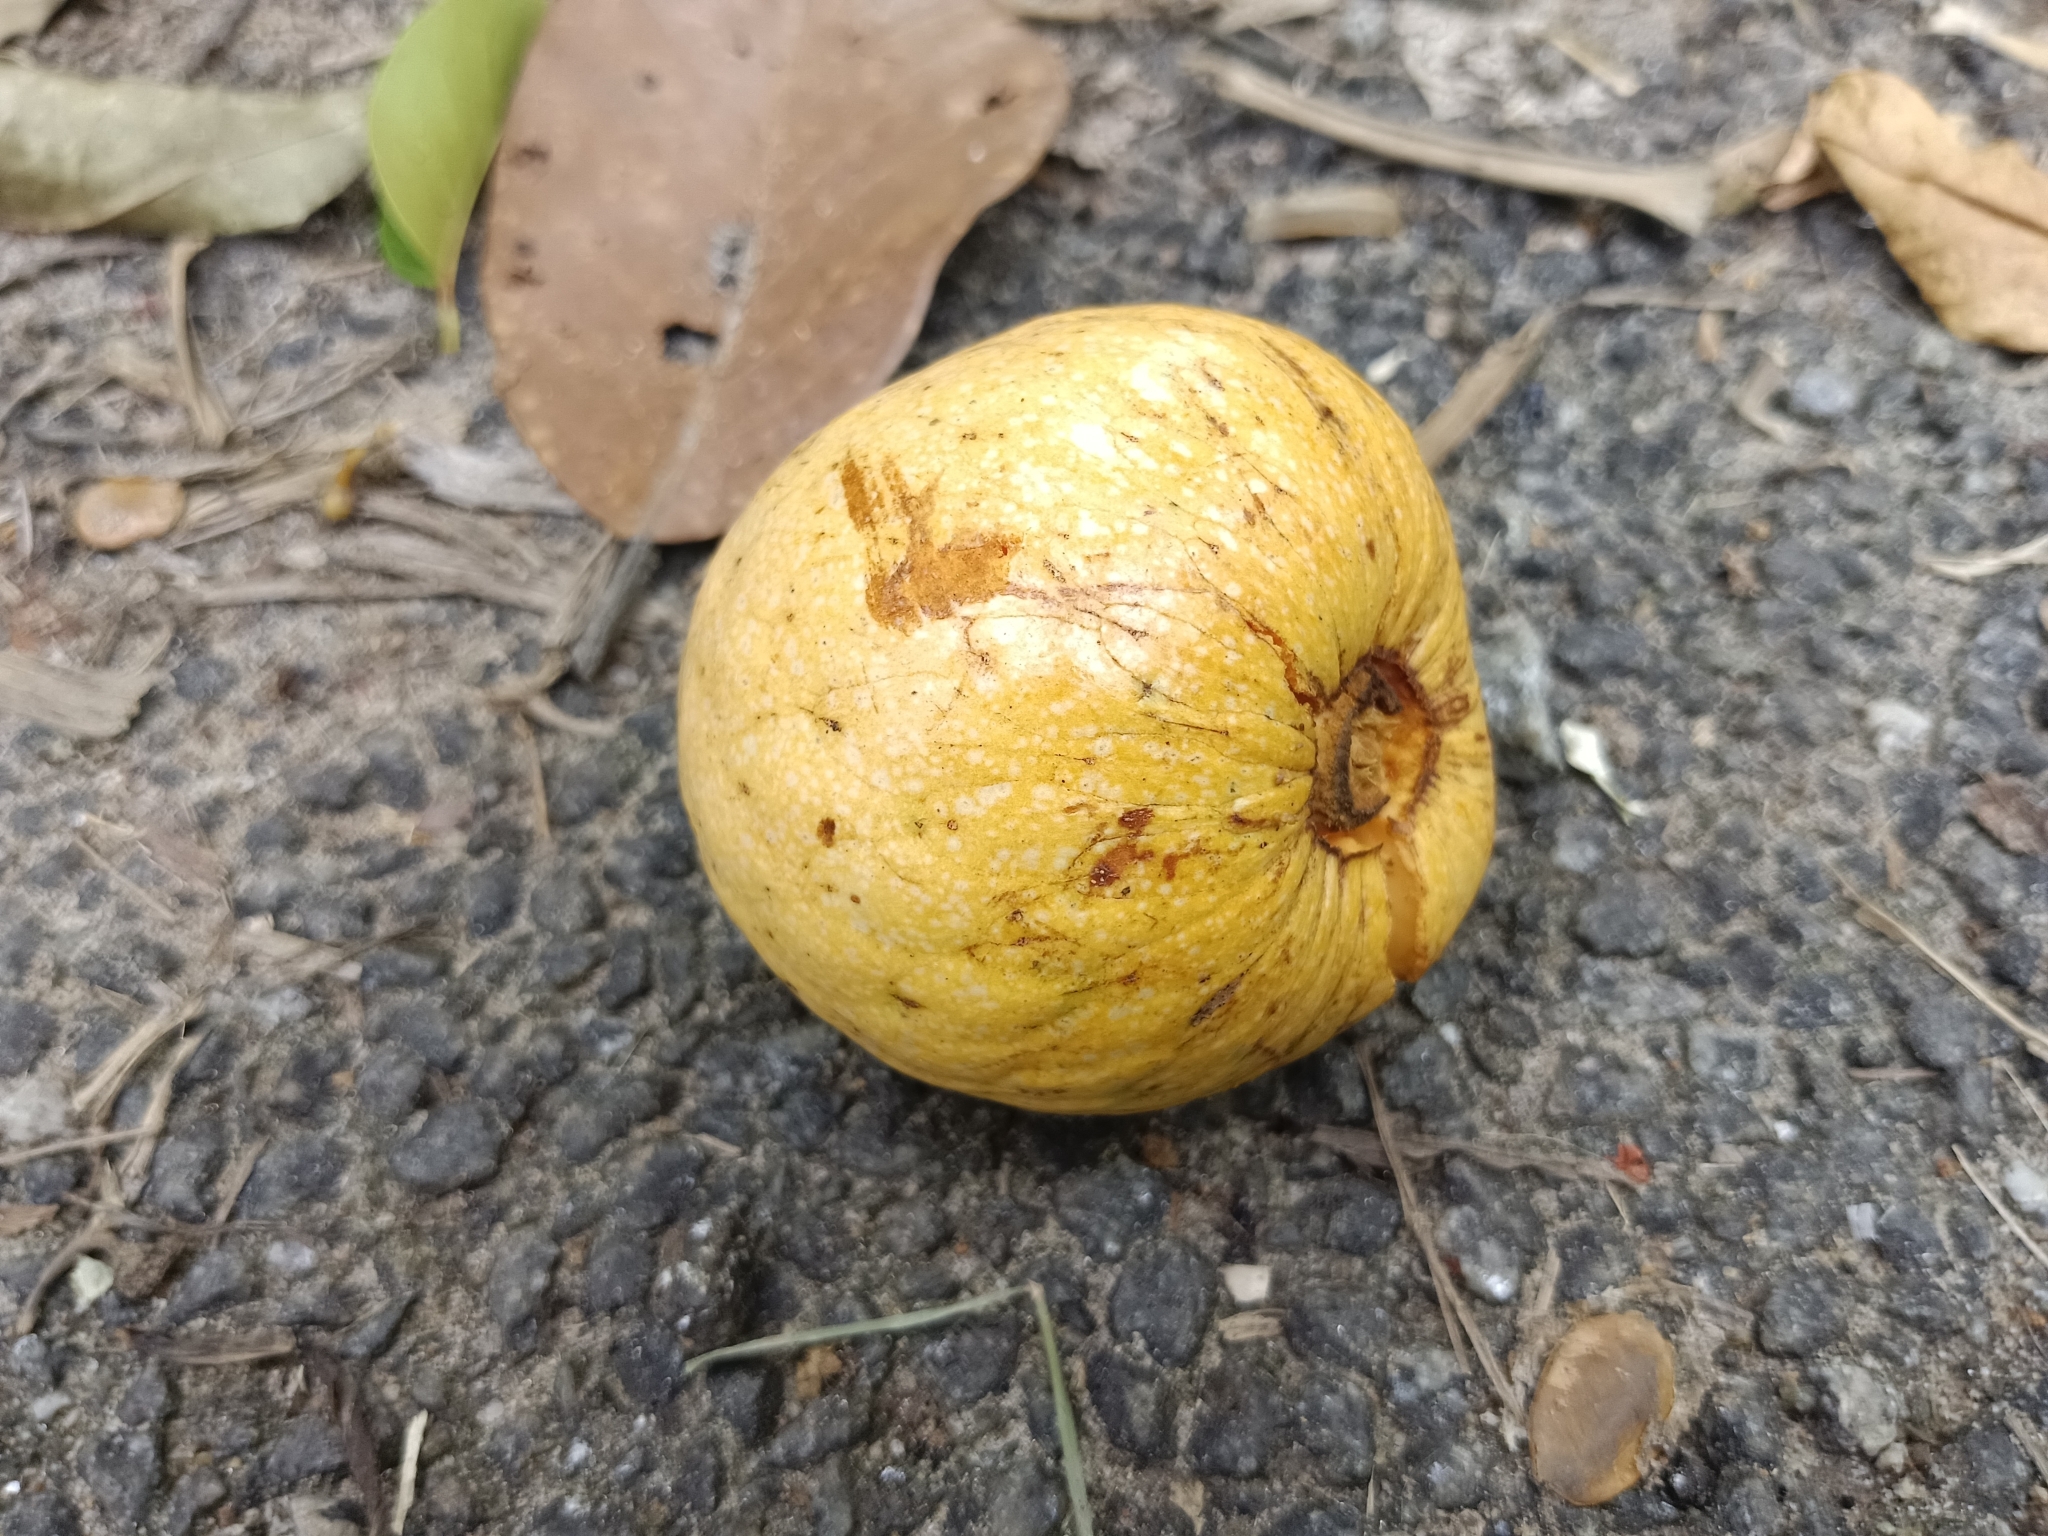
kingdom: Plantae
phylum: Tracheophyta
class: Magnoliopsida
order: Magnoliales
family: Annonaceae
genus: Annona
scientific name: Annona glabra
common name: Monkey apple
